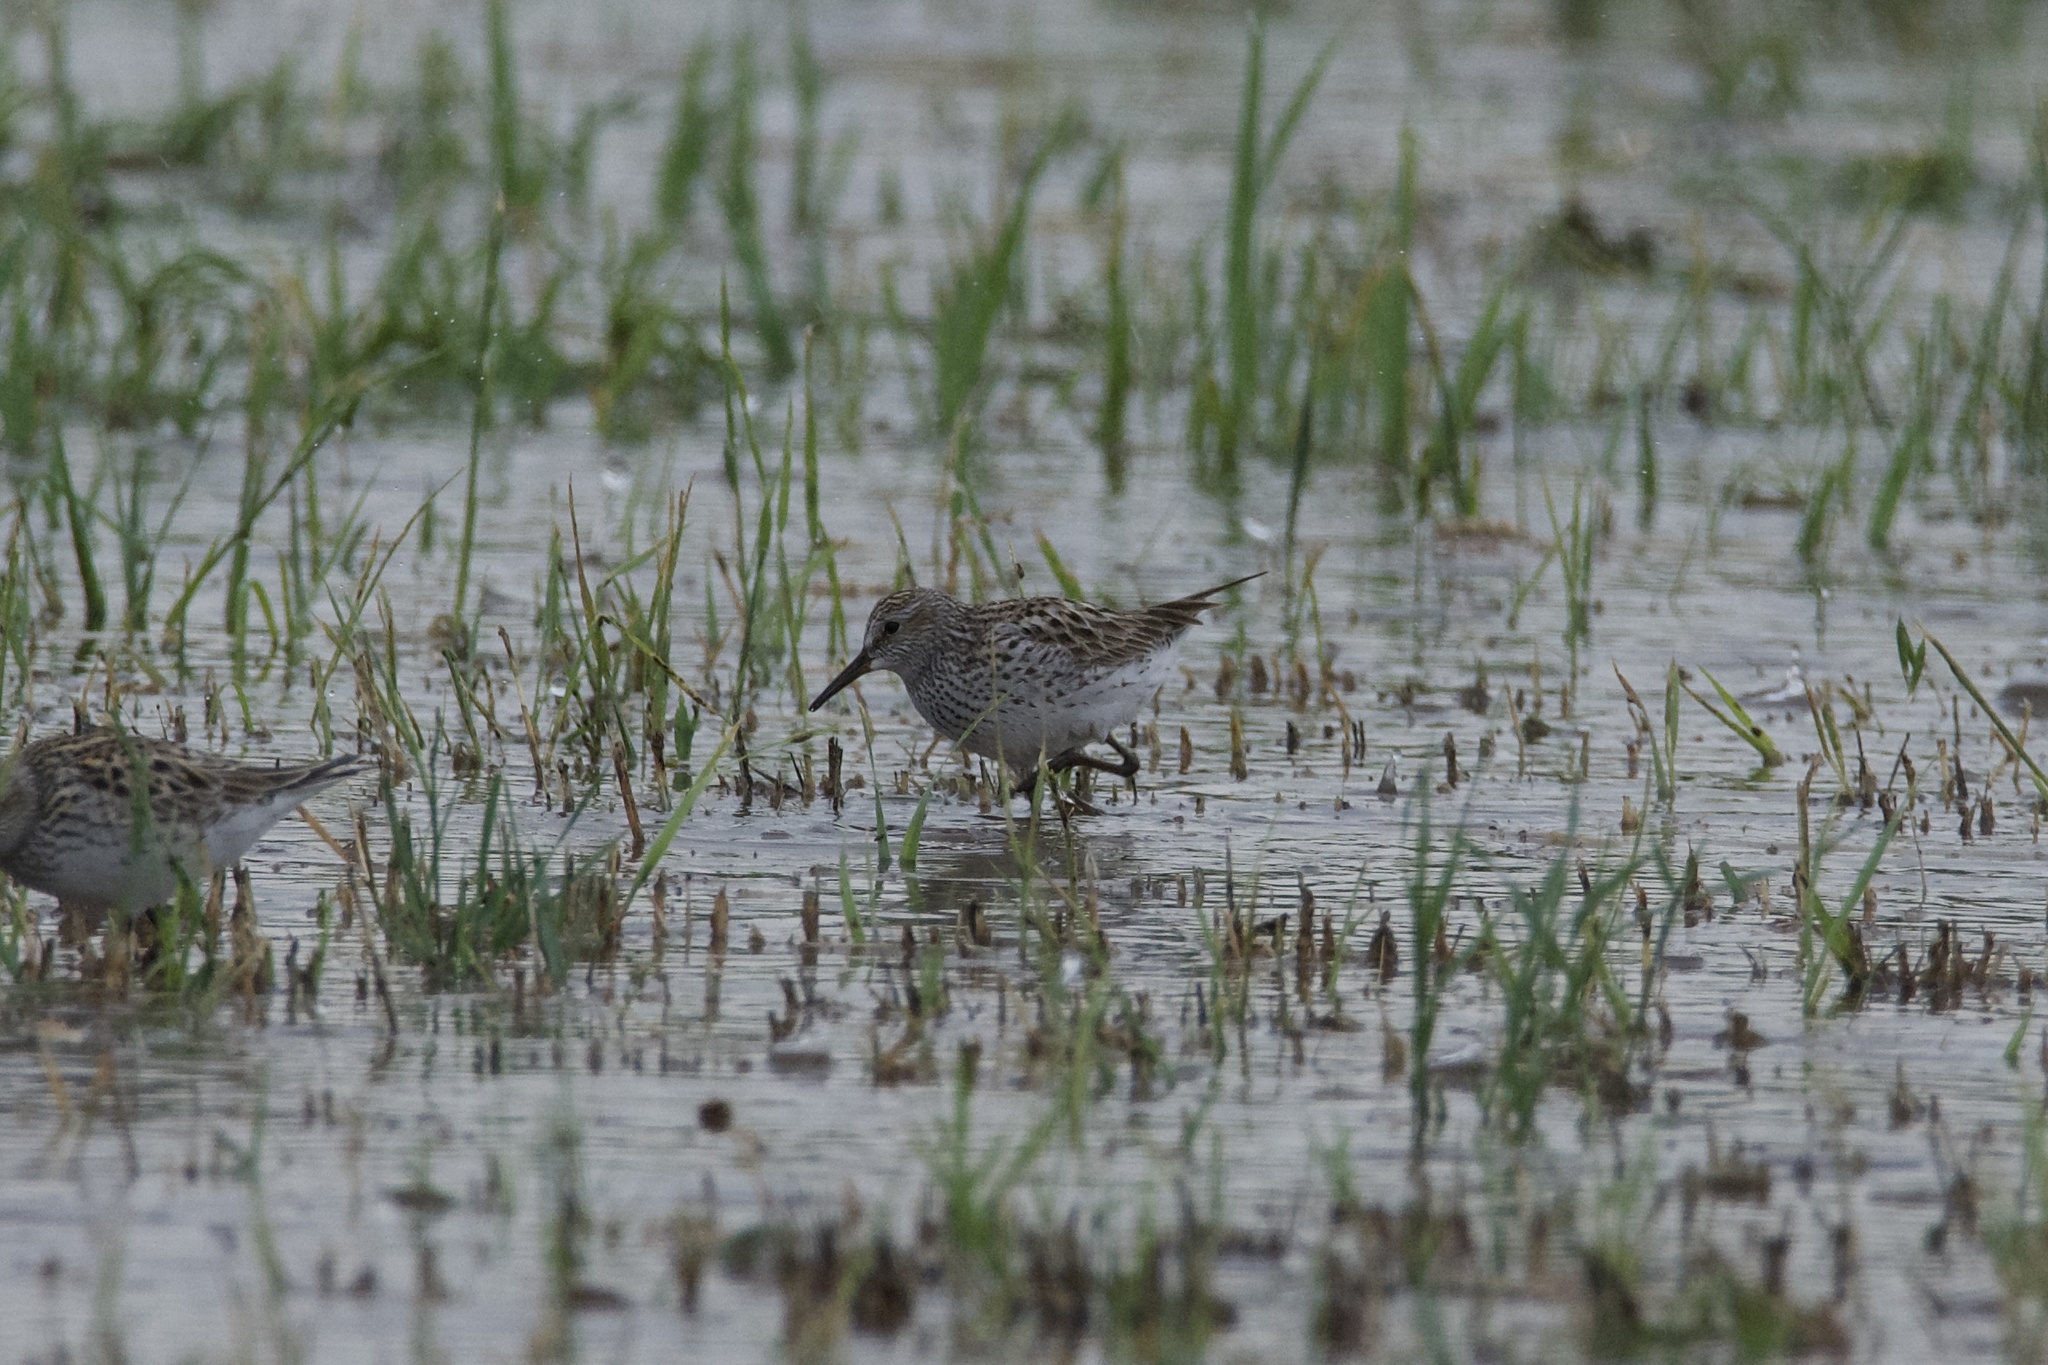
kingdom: Animalia
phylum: Chordata
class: Aves
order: Charadriiformes
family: Scolopacidae
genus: Calidris
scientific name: Calidris fuscicollis
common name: White-rumped sandpiper
